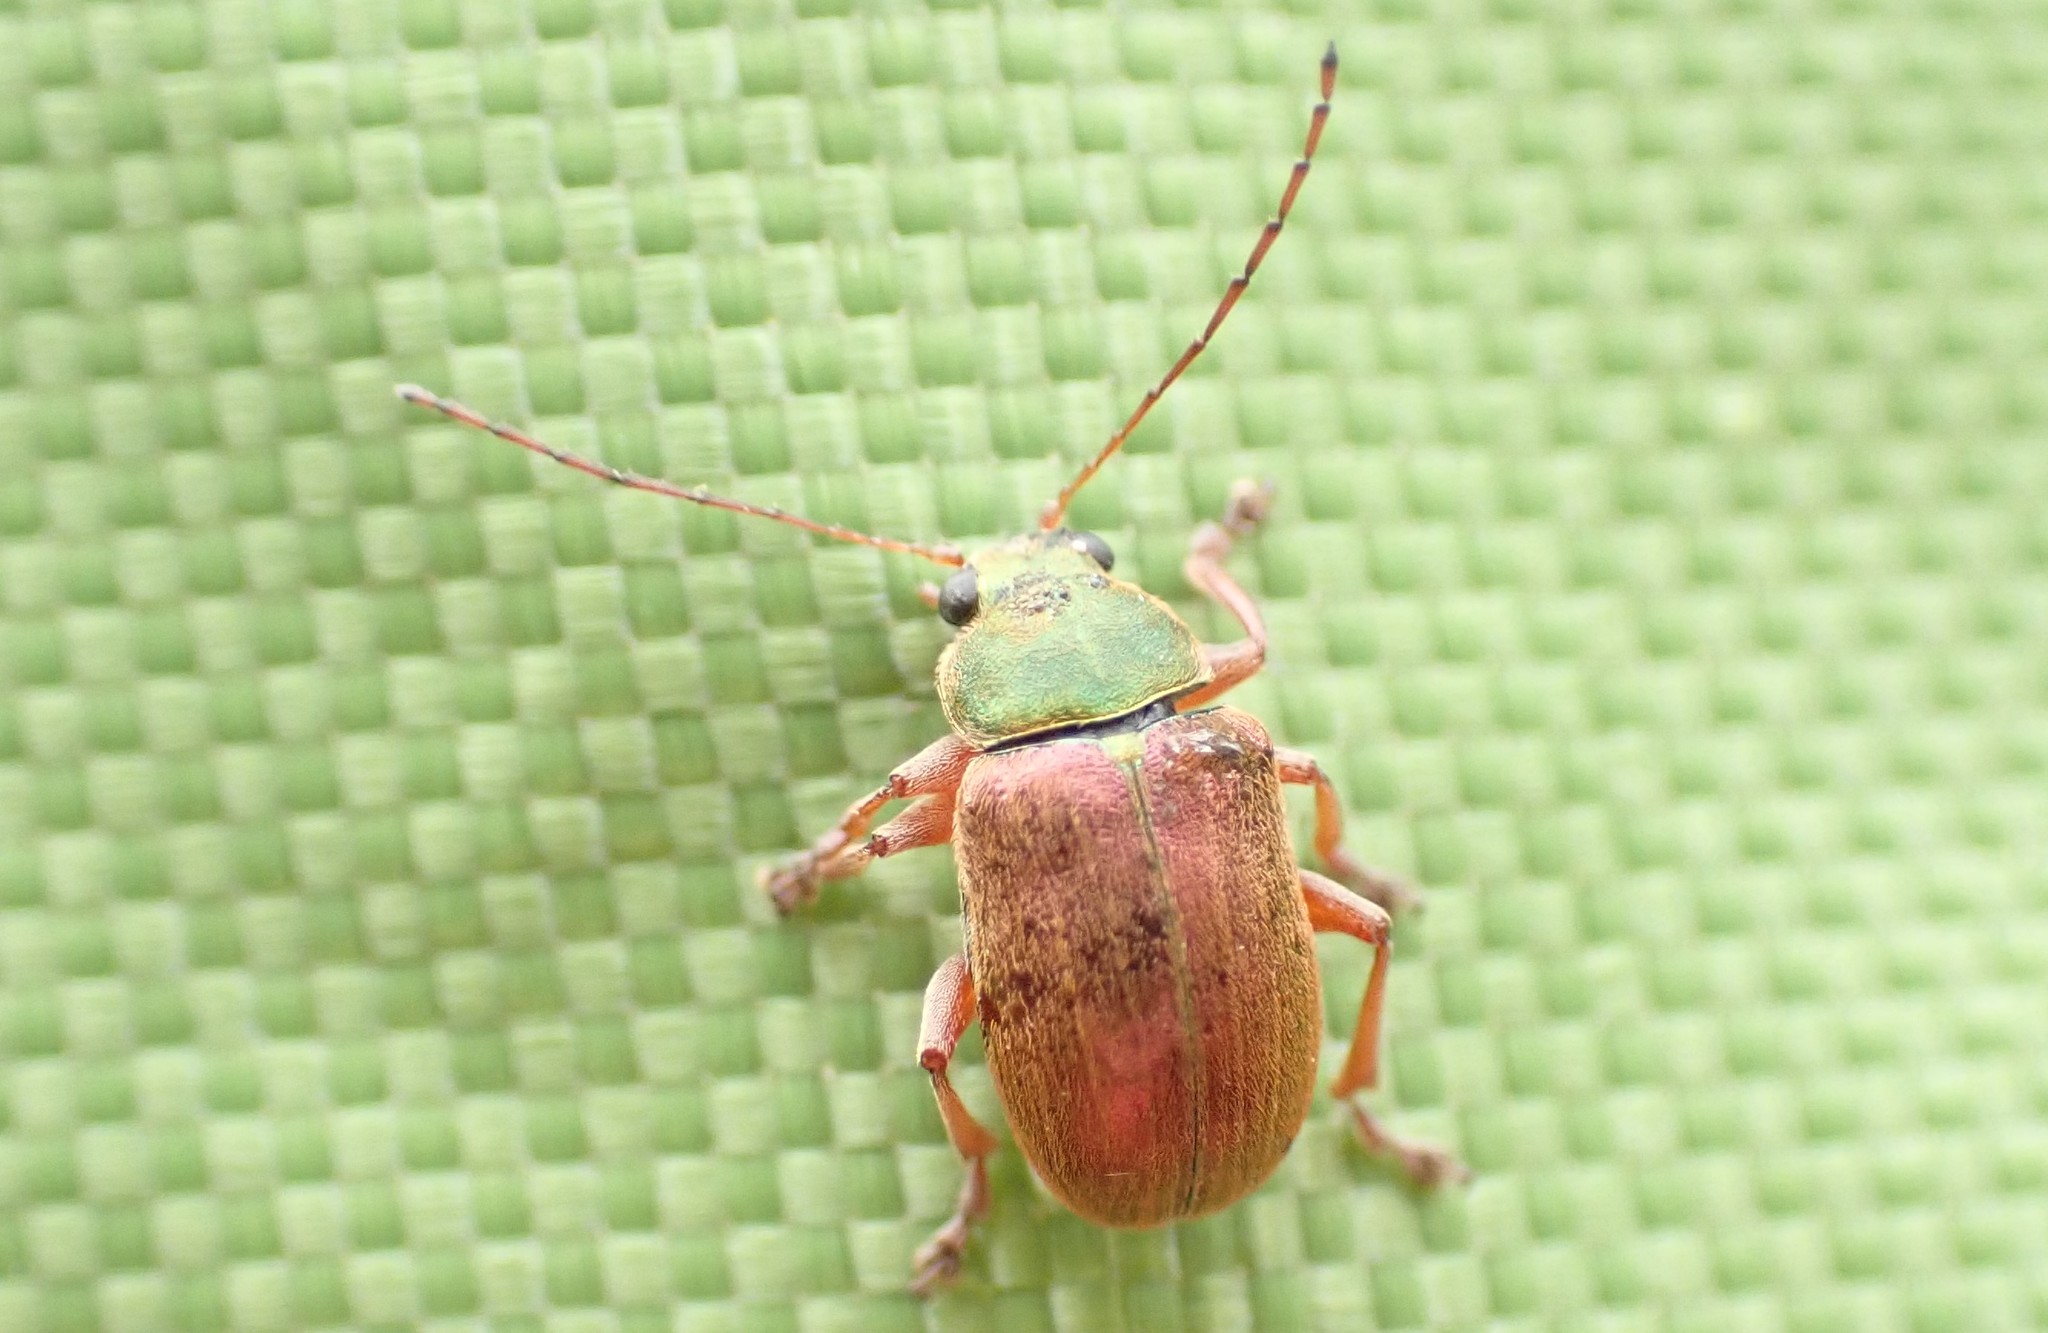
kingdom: Animalia
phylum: Arthropoda
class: Insecta
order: Coleoptera
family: Chrysomelidae
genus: Edusella
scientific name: Edusella
